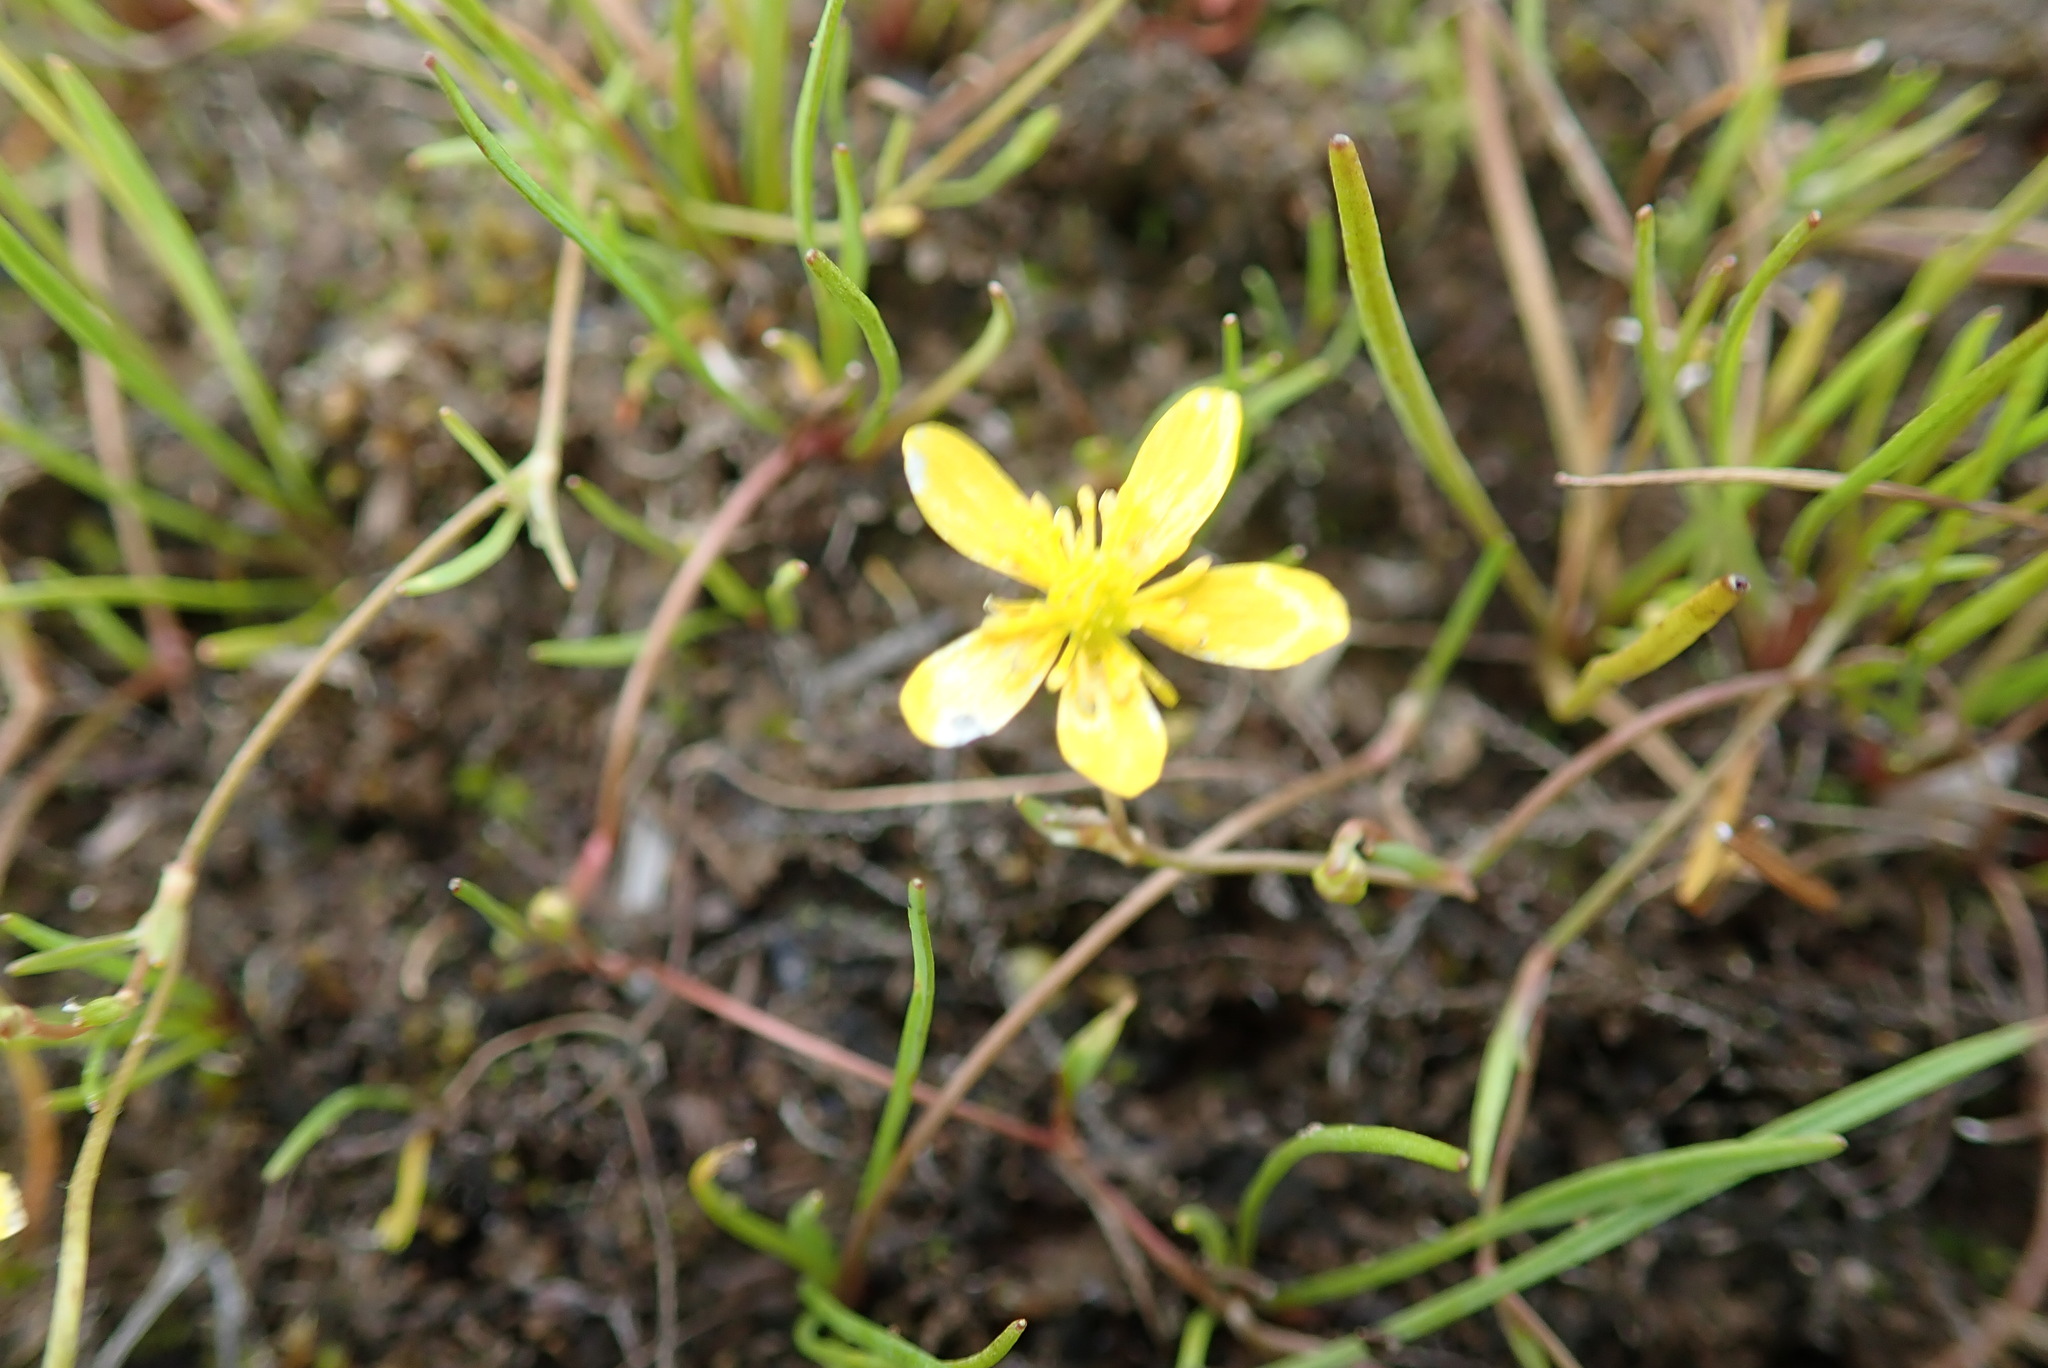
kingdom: Plantae
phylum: Tracheophyta
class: Magnoliopsida
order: Ranunculales
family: Ranunculaceae
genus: Ranunculus
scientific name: Ranunculus flammula
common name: Lesser spearwort
